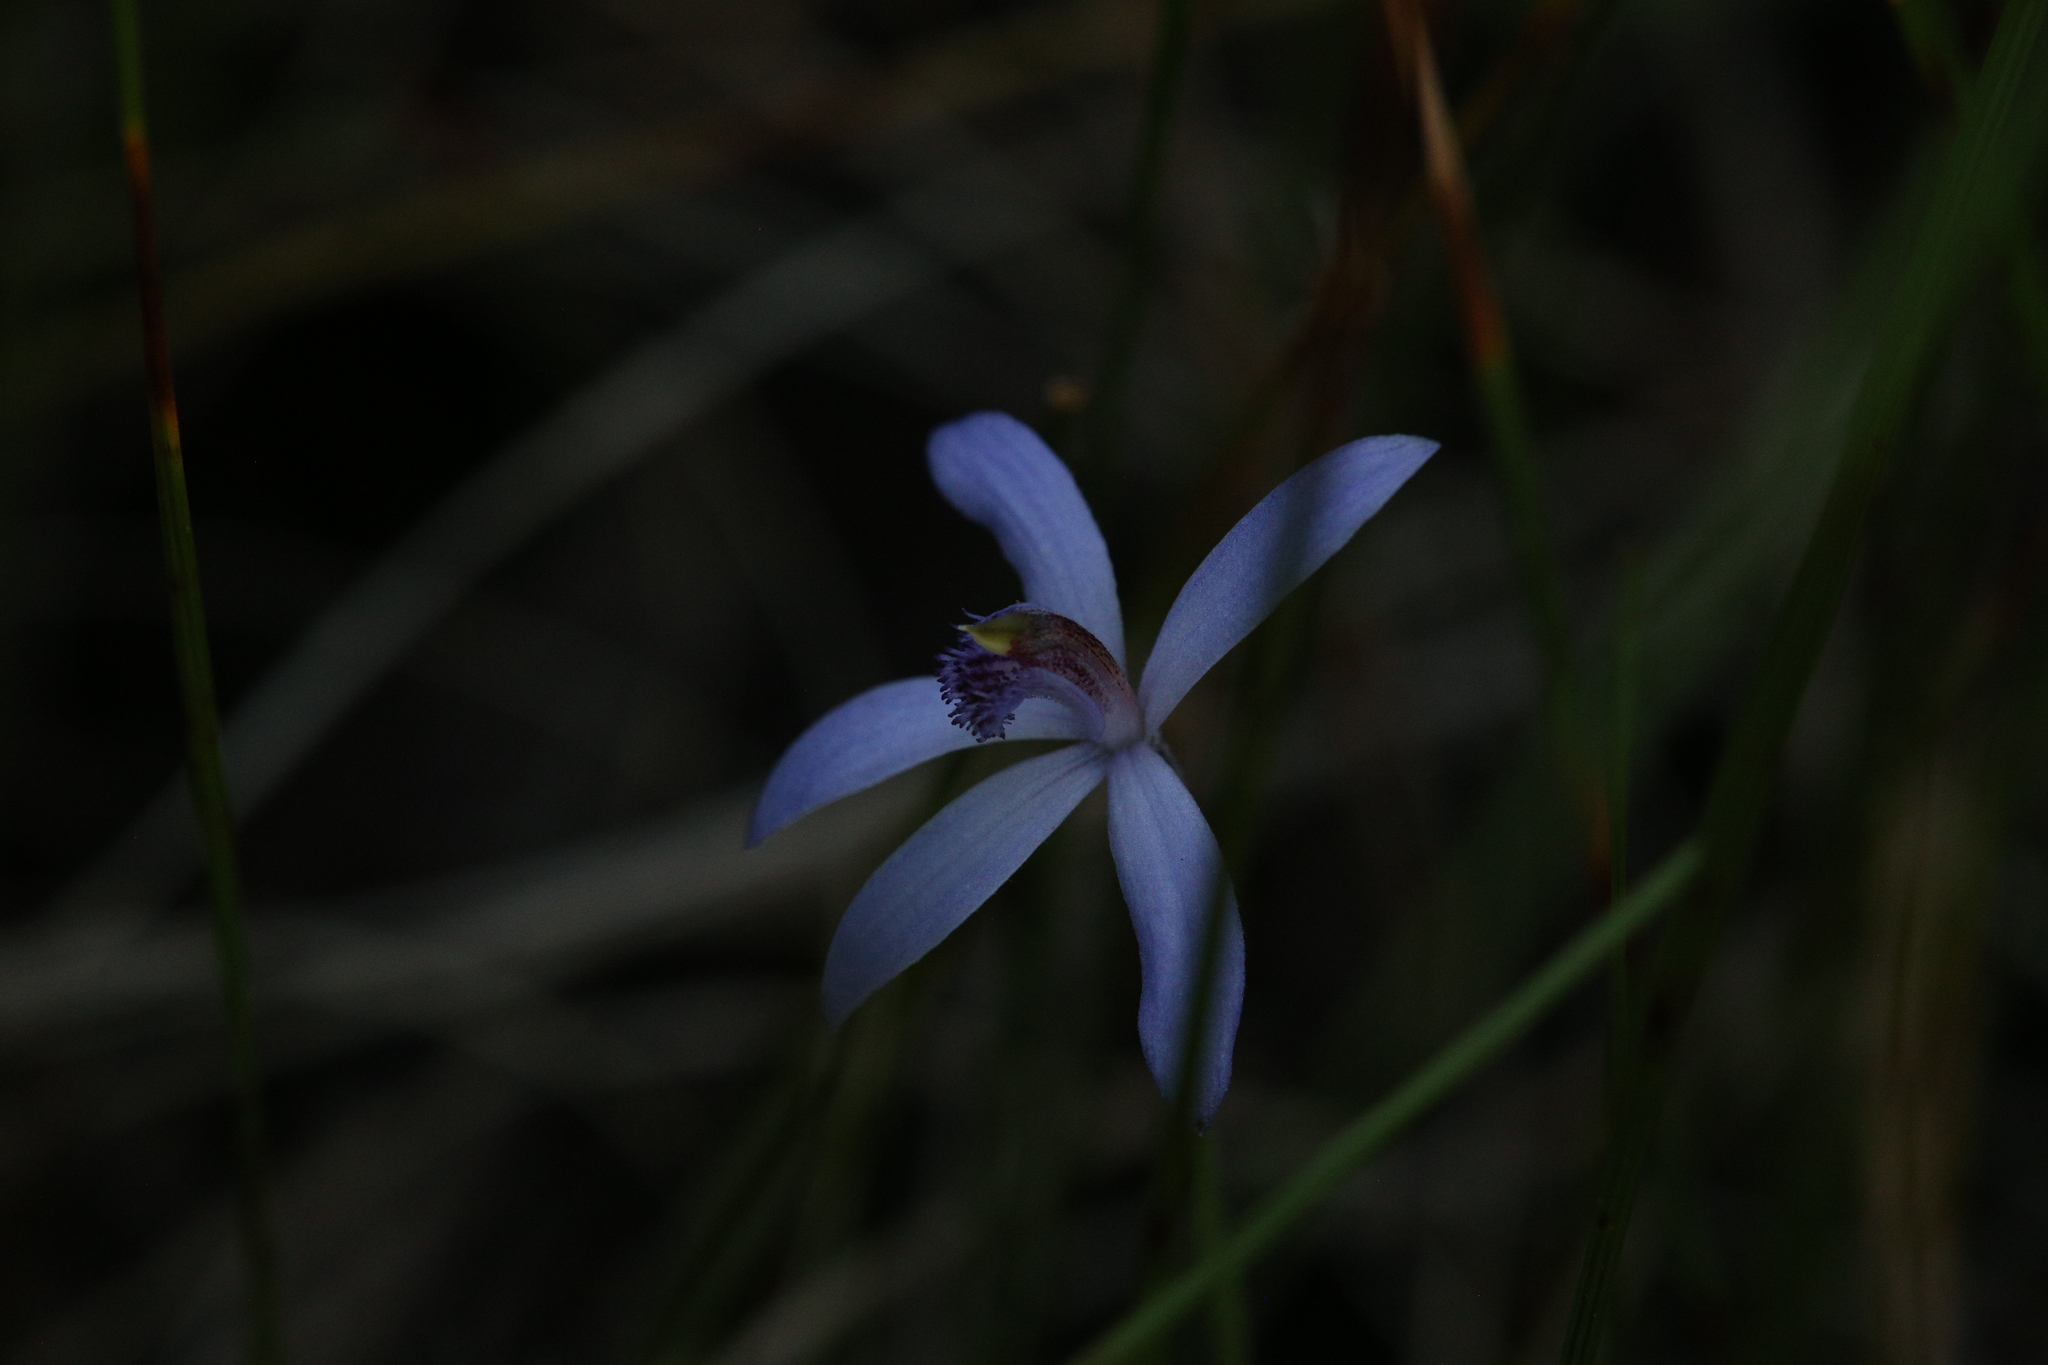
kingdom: Plantae
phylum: Tracheophyta
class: Liliopsida
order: Asparagales
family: Orchidaceae
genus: Pheladenia
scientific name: Pheladenia deformis
